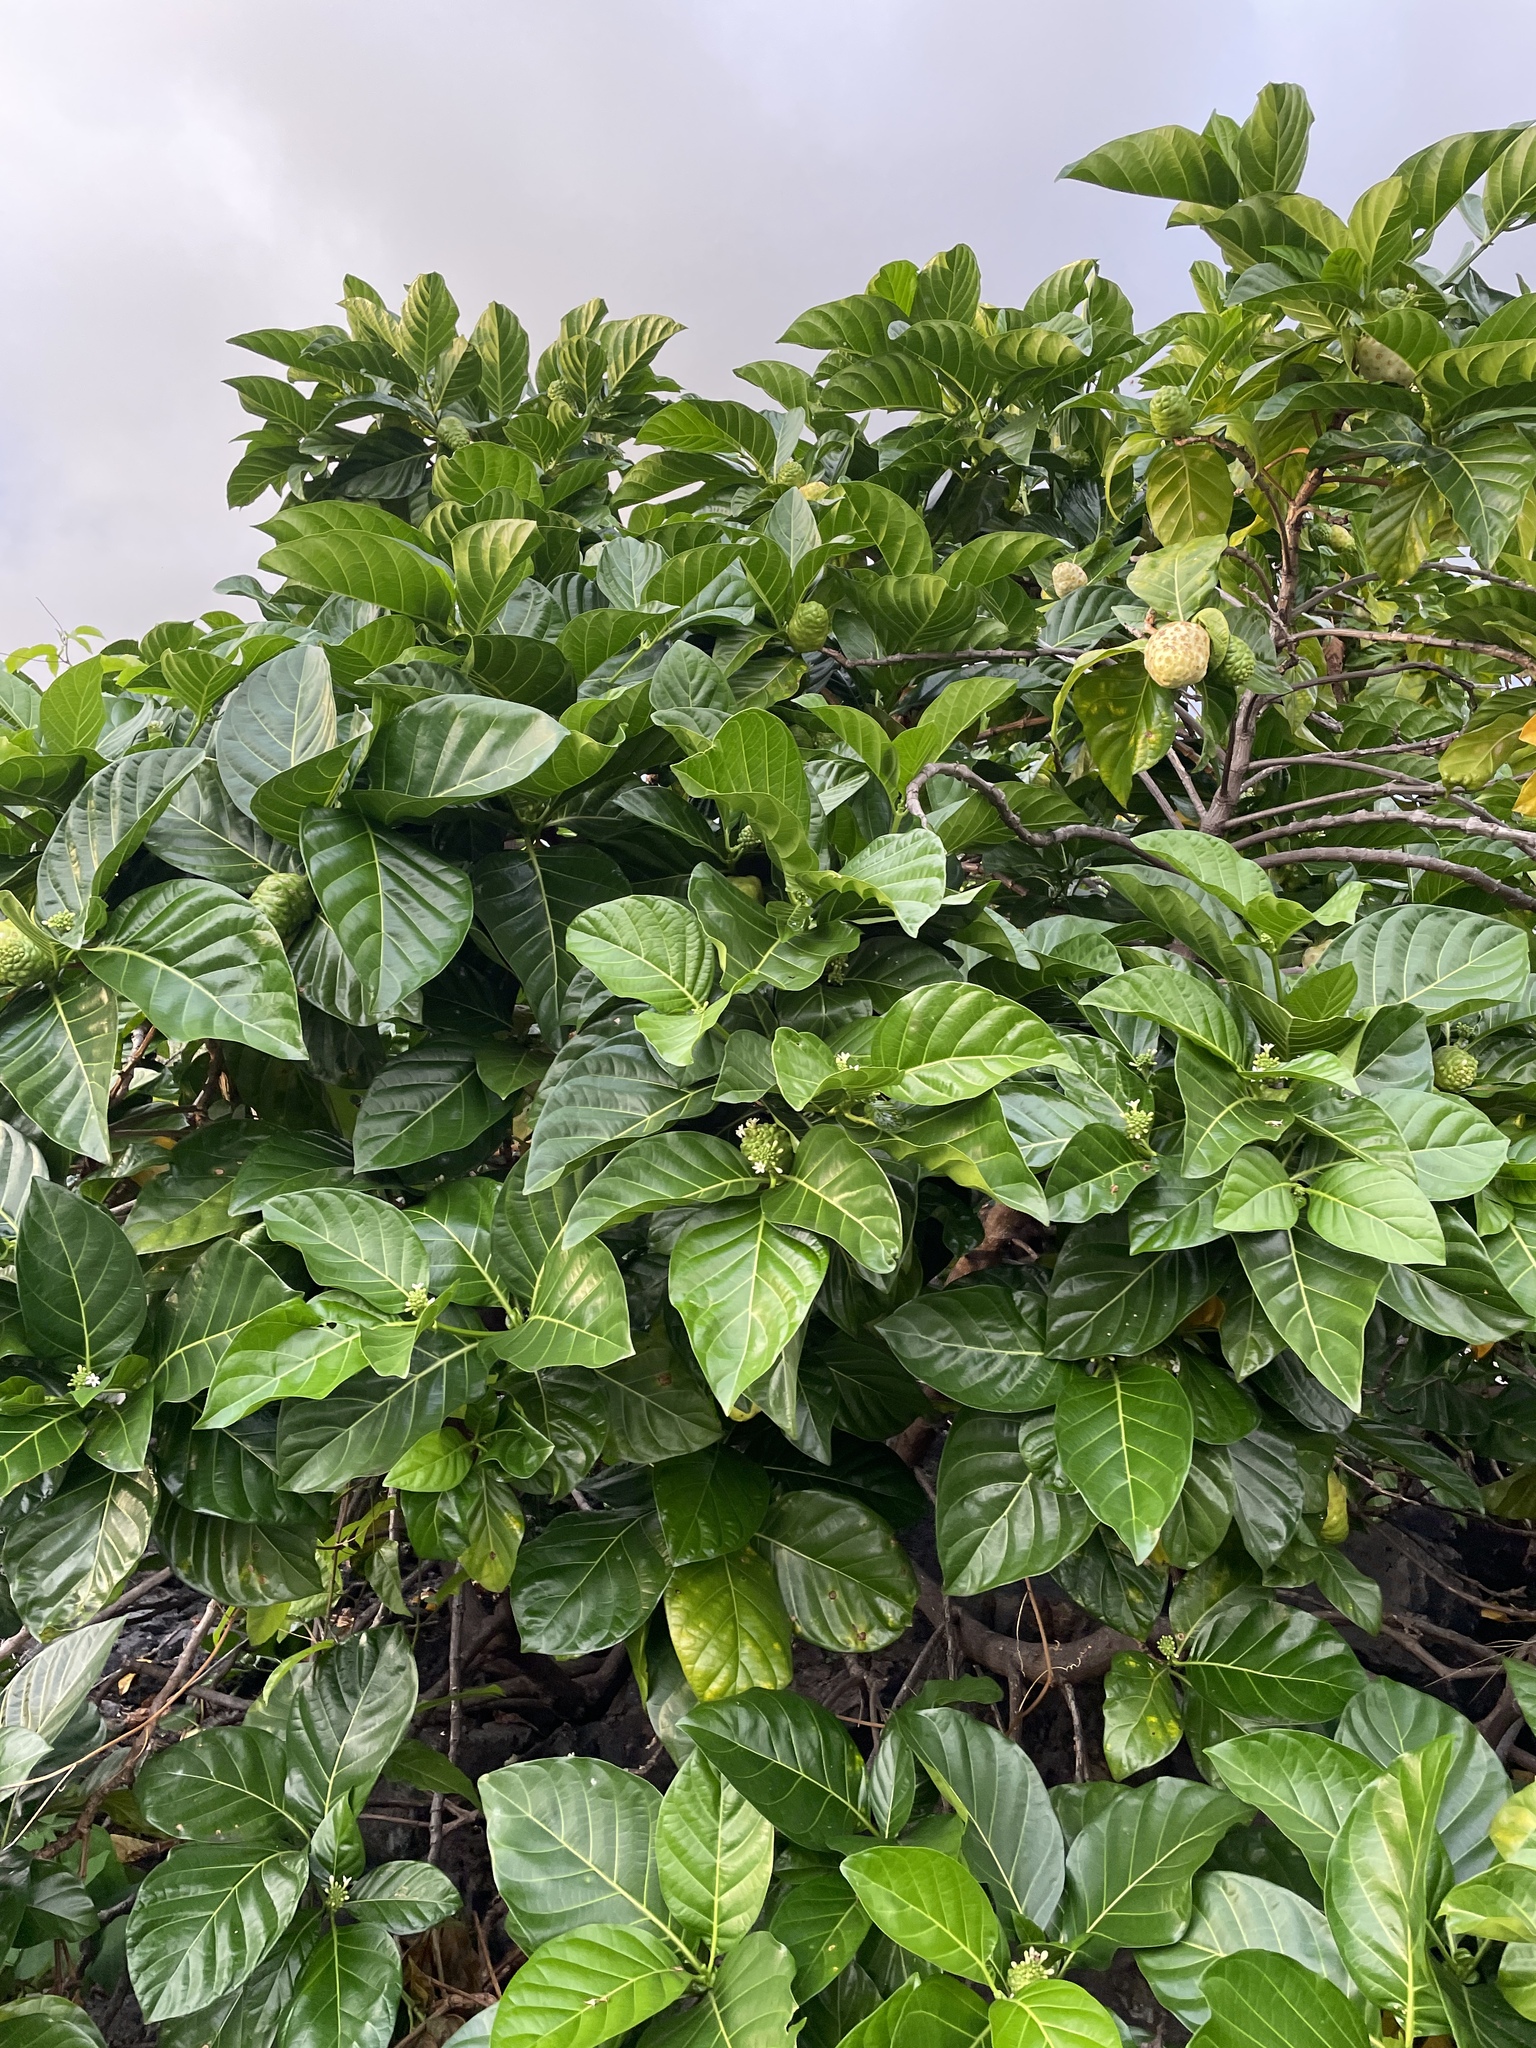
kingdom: Plantae
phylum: Tracheophyta
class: Magnoliopsida
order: Gentianales
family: Rubiaceae
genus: Morinda
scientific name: Morinda citrifolia
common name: Indian-mulberry
